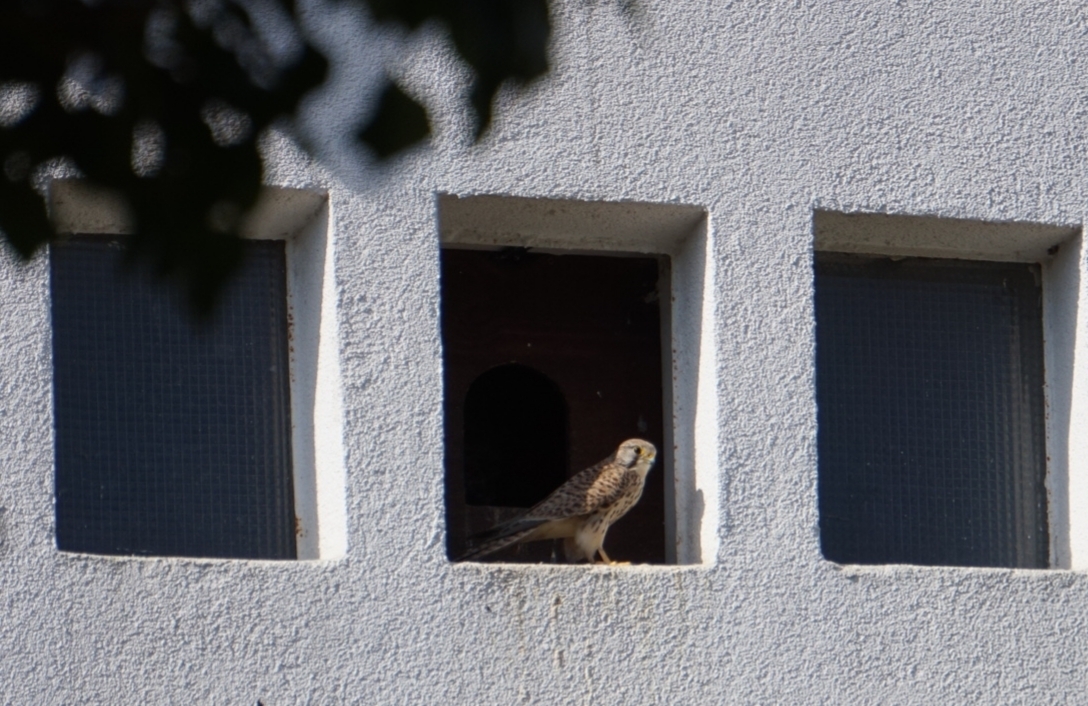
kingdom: Animalia
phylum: Chordata
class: Aves
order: Falconiformes
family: Falconidae
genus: Falco
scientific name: Falco tinnunculus
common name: Common kestrel
